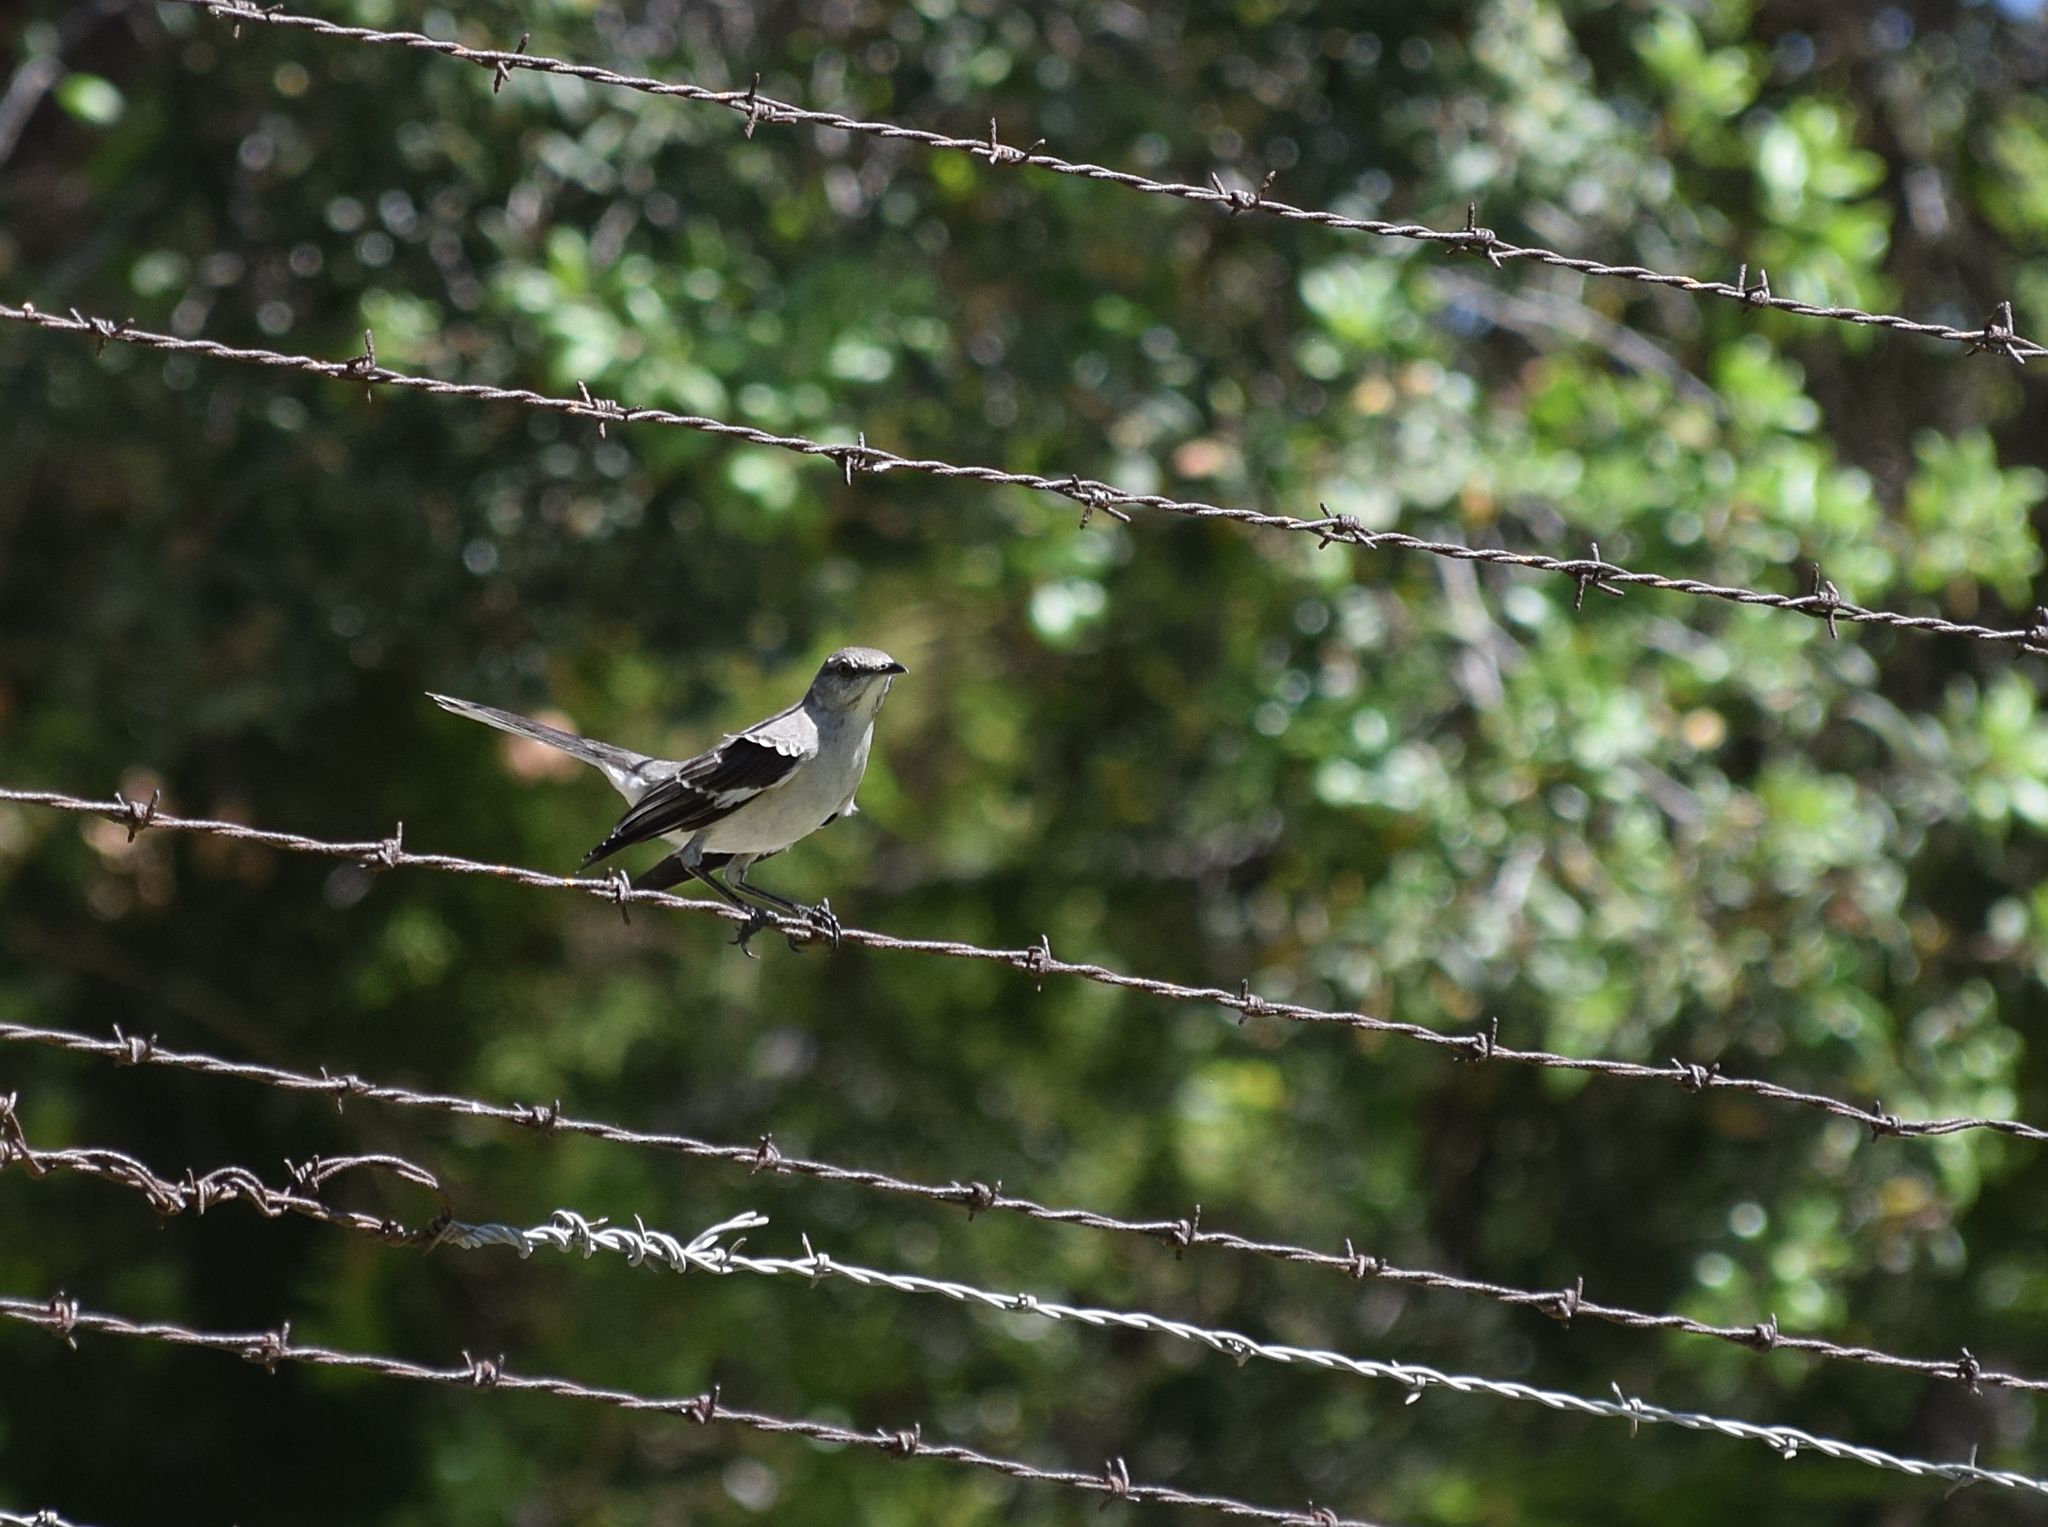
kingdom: Animalia
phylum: Chordata
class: Aves
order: Passeriformes
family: Mimidae
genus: Mimus
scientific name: Mimus polyglottos
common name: Northern mockingbird
